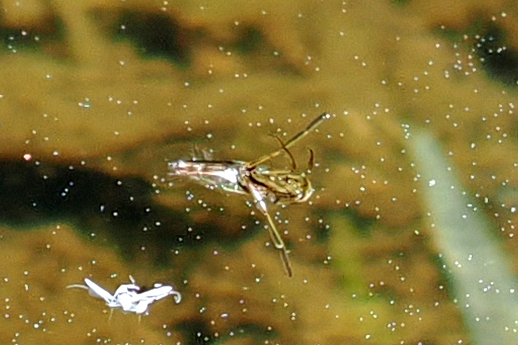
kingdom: Animalia
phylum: Arthropoda
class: Insecta
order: Hemiptera
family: Notonectidae
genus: Notonecta
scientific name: Notonecta
